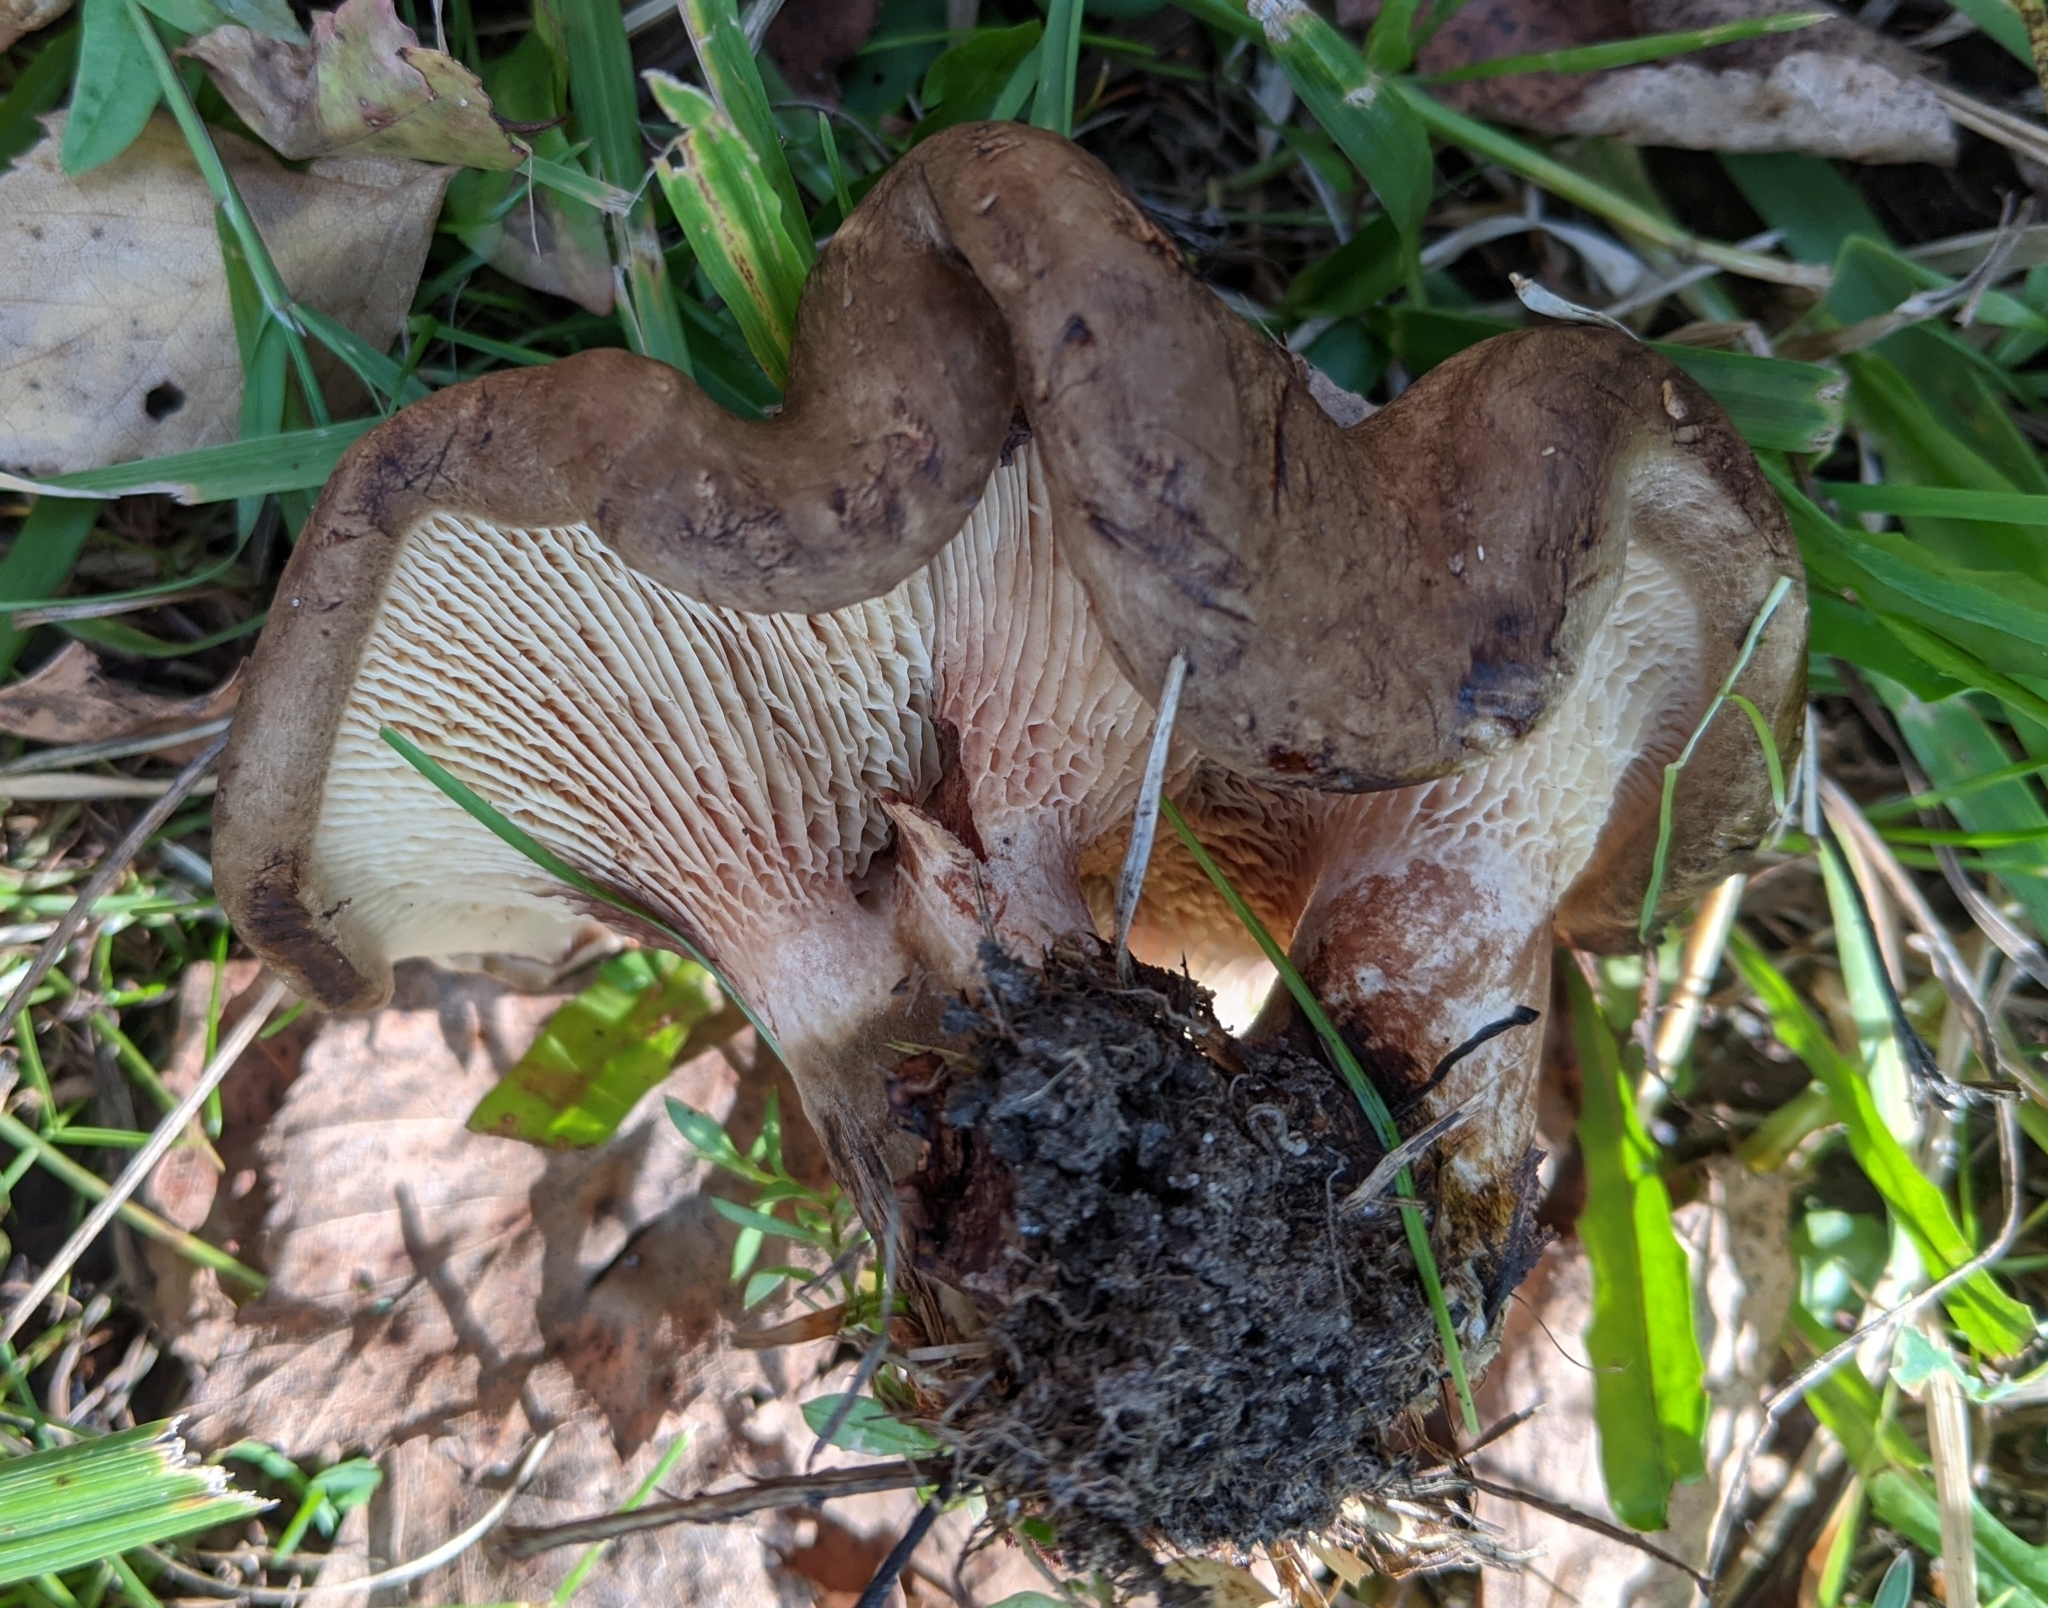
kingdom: Fungi
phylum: Basidiomycota
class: Agaricomycetes
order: Boletales
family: Paxillaceae
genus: Paxillus
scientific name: Paxillus involutus
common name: Brown roll rim
